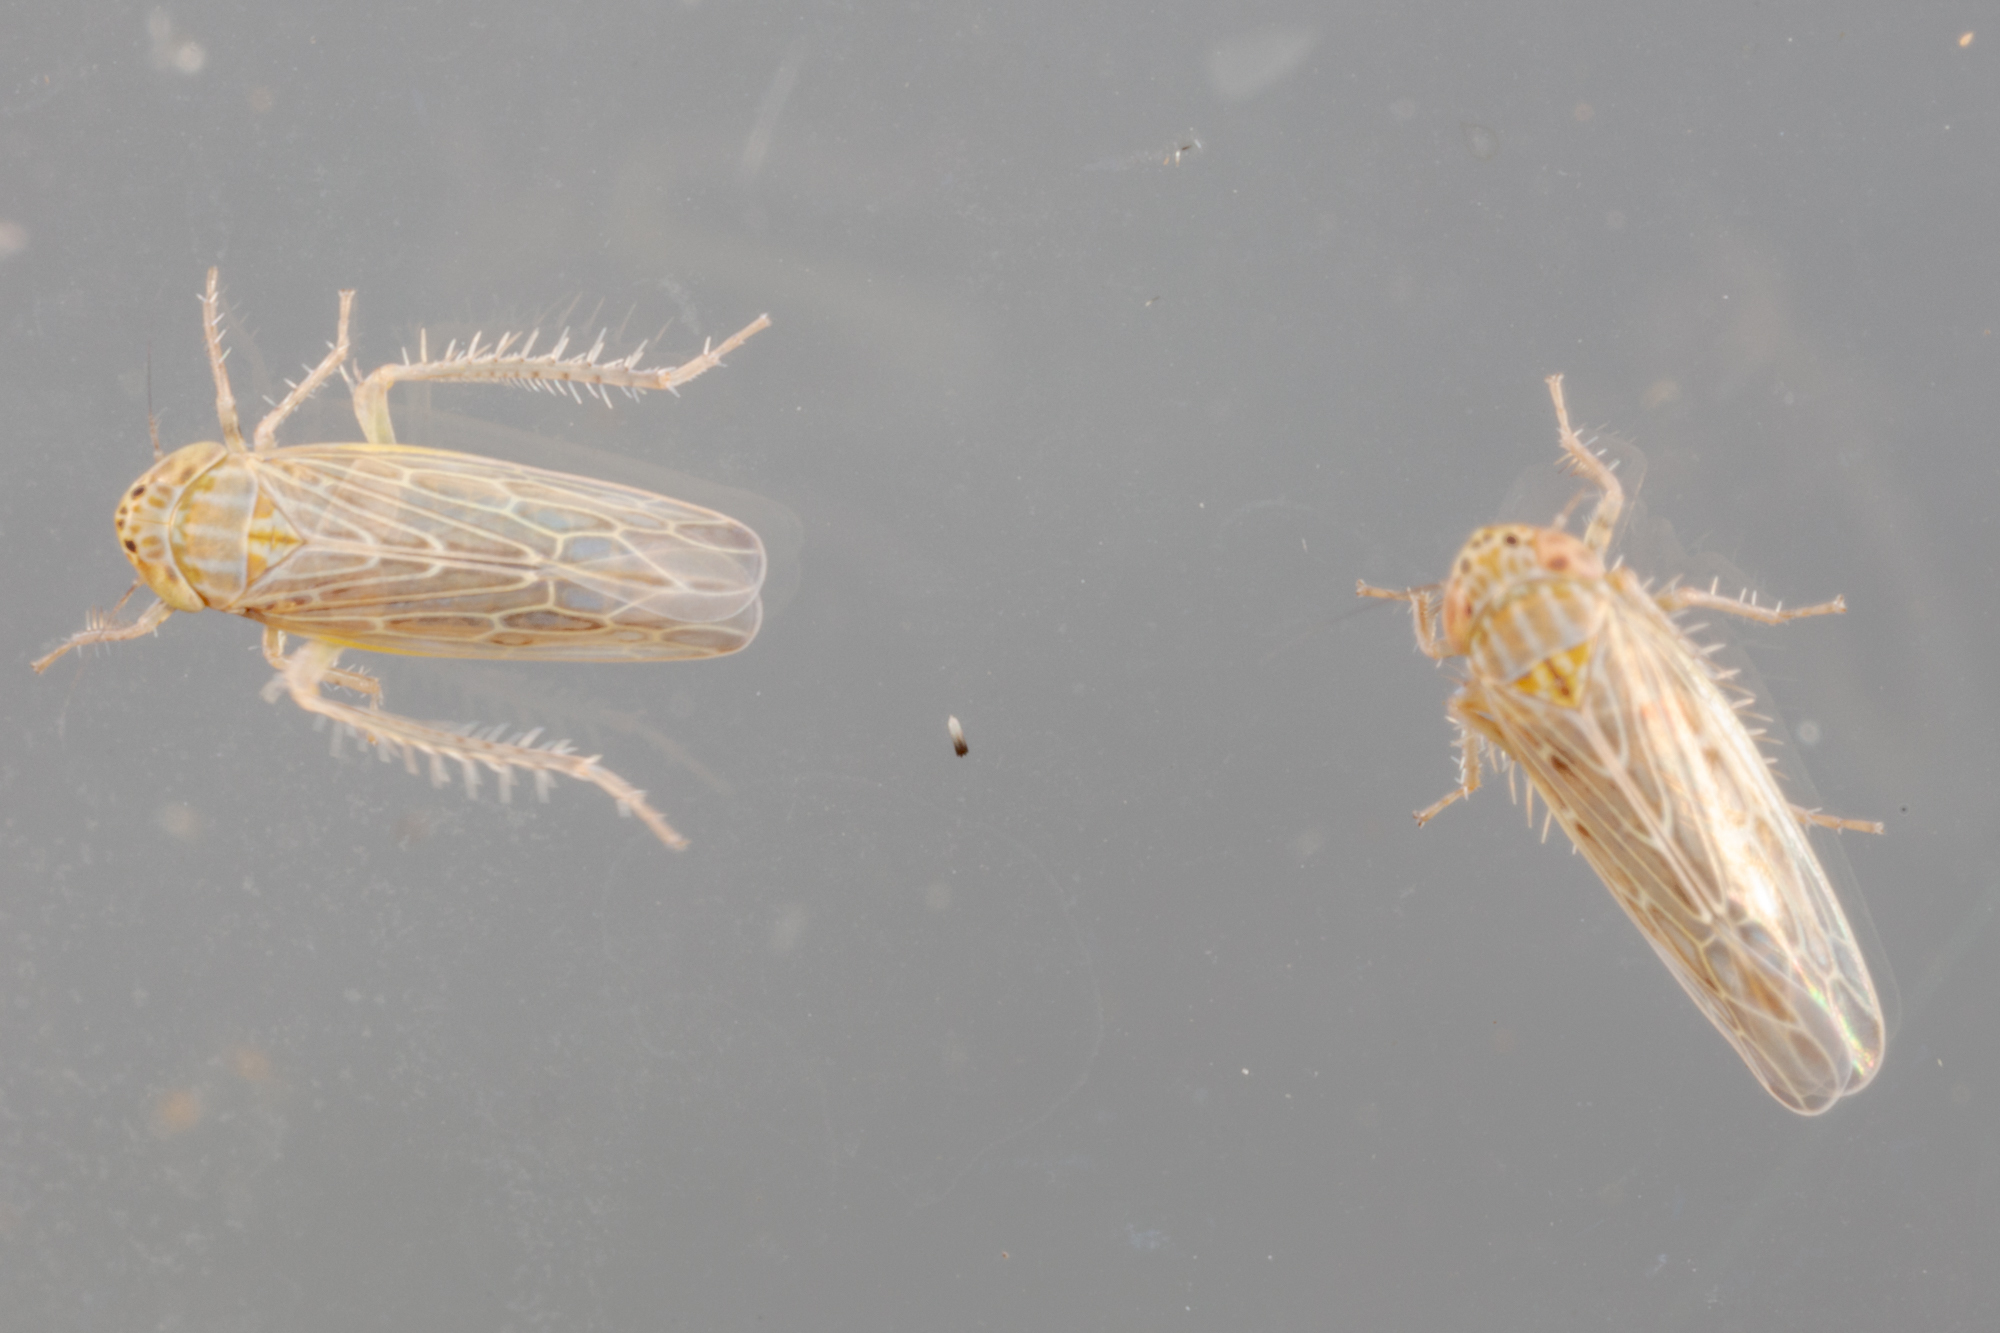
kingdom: Animalia
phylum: Arthropoda
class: Insecta
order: Hemiptera
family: Cicadellidae
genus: Graminella
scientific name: Graminella sonora
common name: Lesser lawn leafhopper
